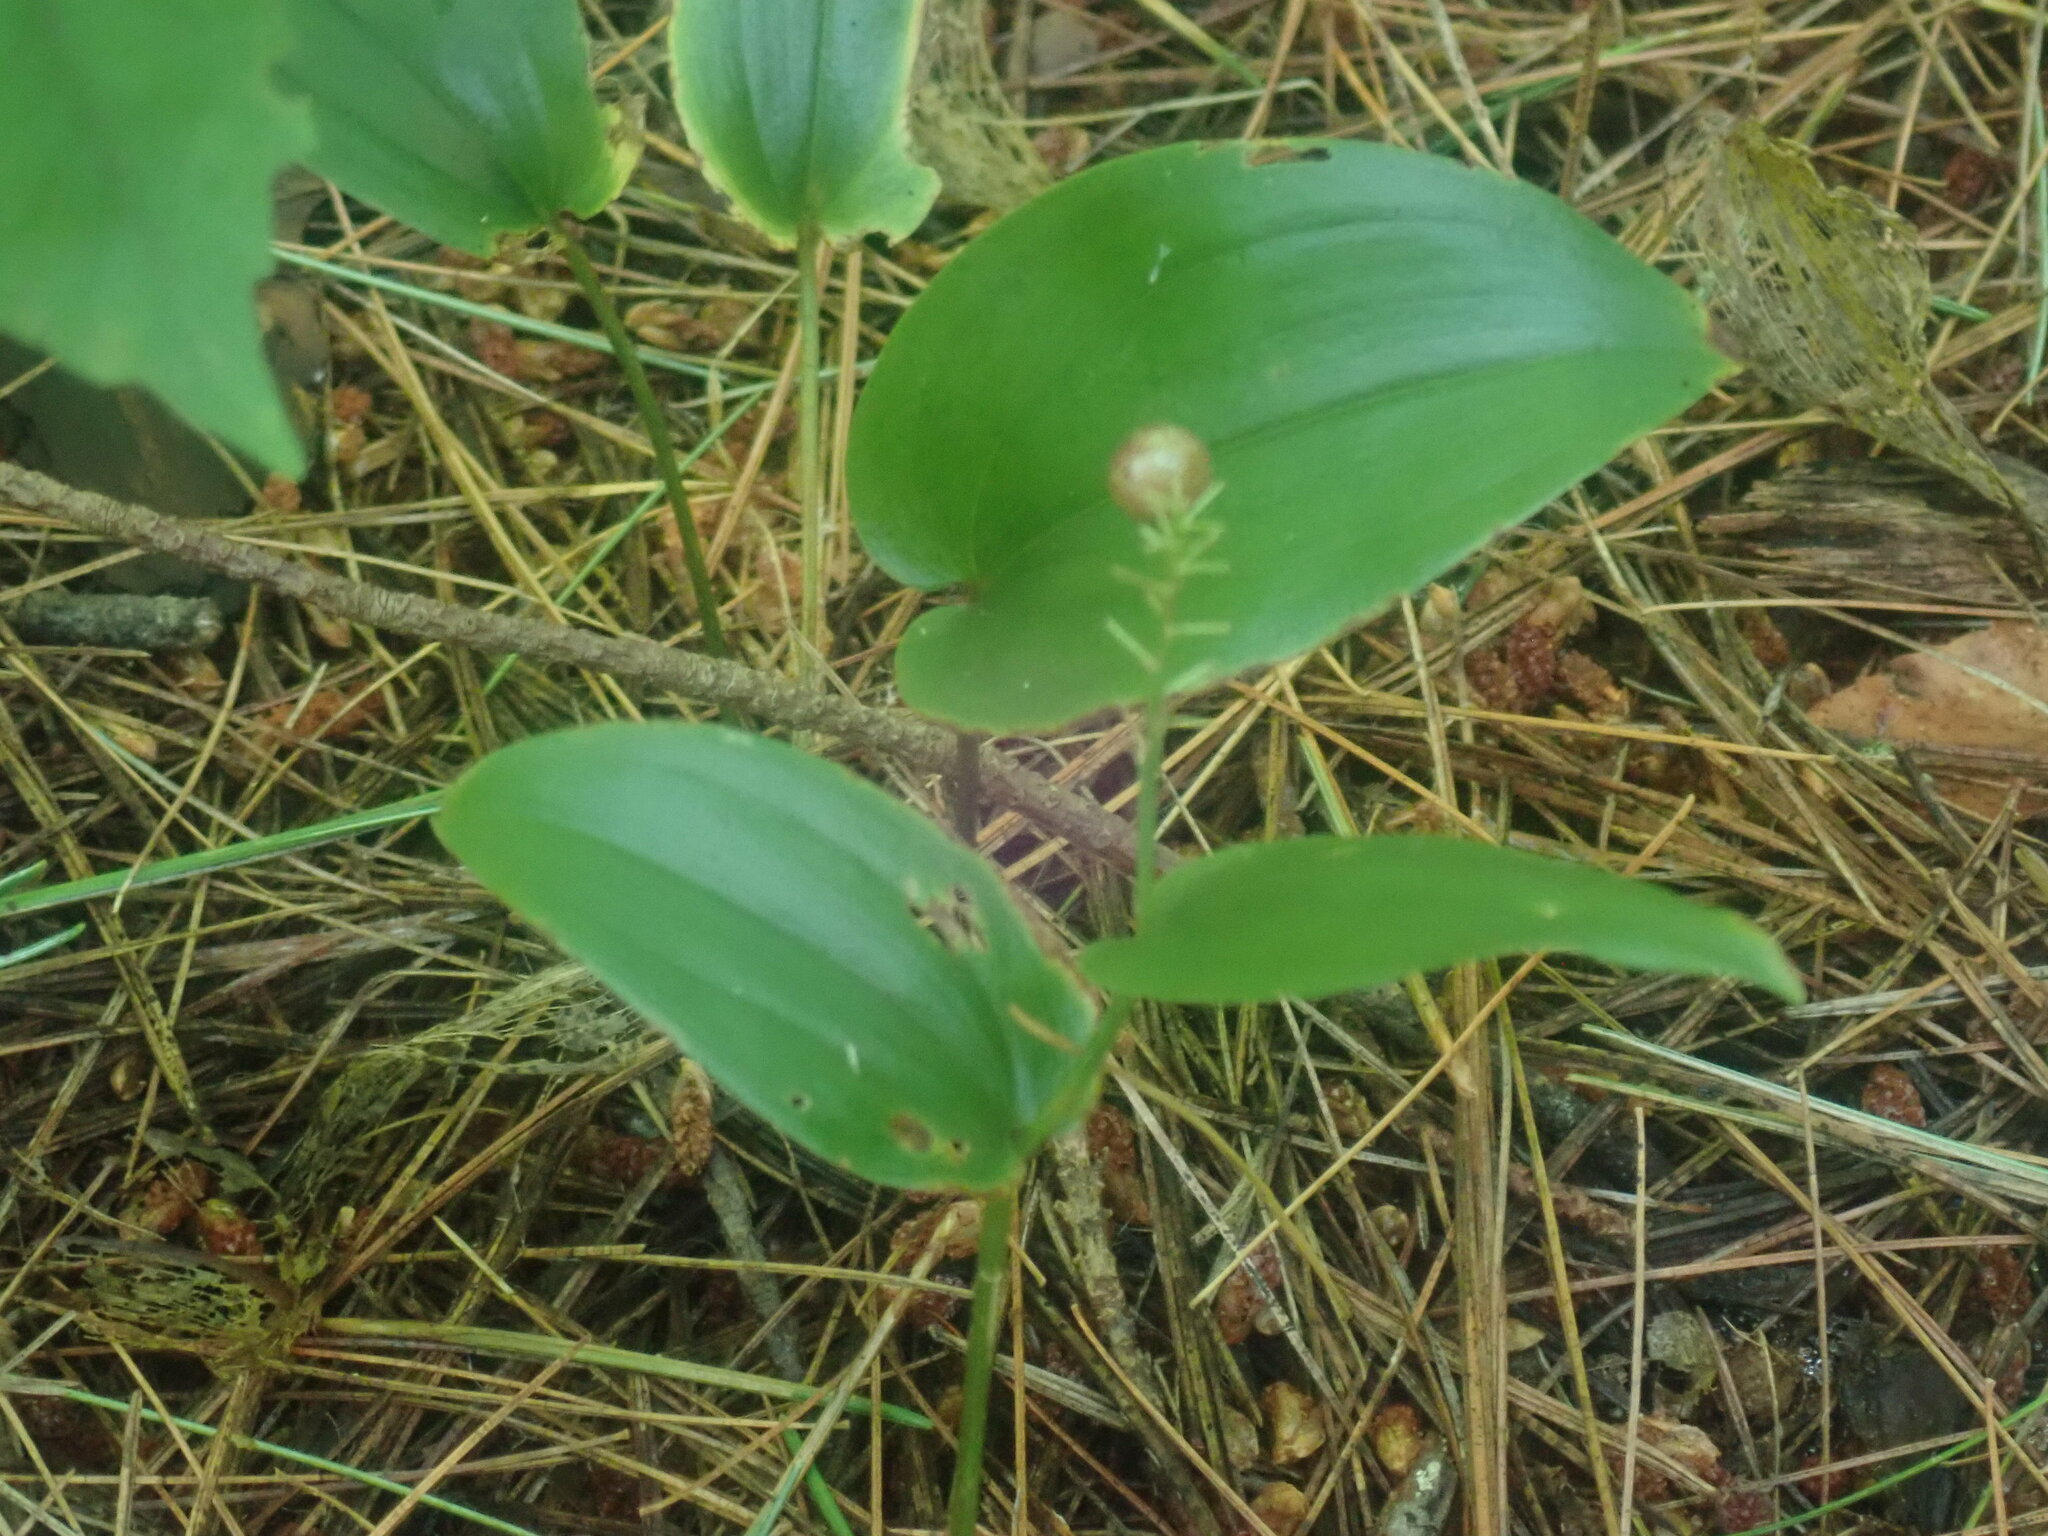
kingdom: Plantae
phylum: Tracheophyta
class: Liliopsida
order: Asparagales
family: Asparagaceae
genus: Maianthemum
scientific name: Maianthemum canadense
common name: False lily-of-the-valley
